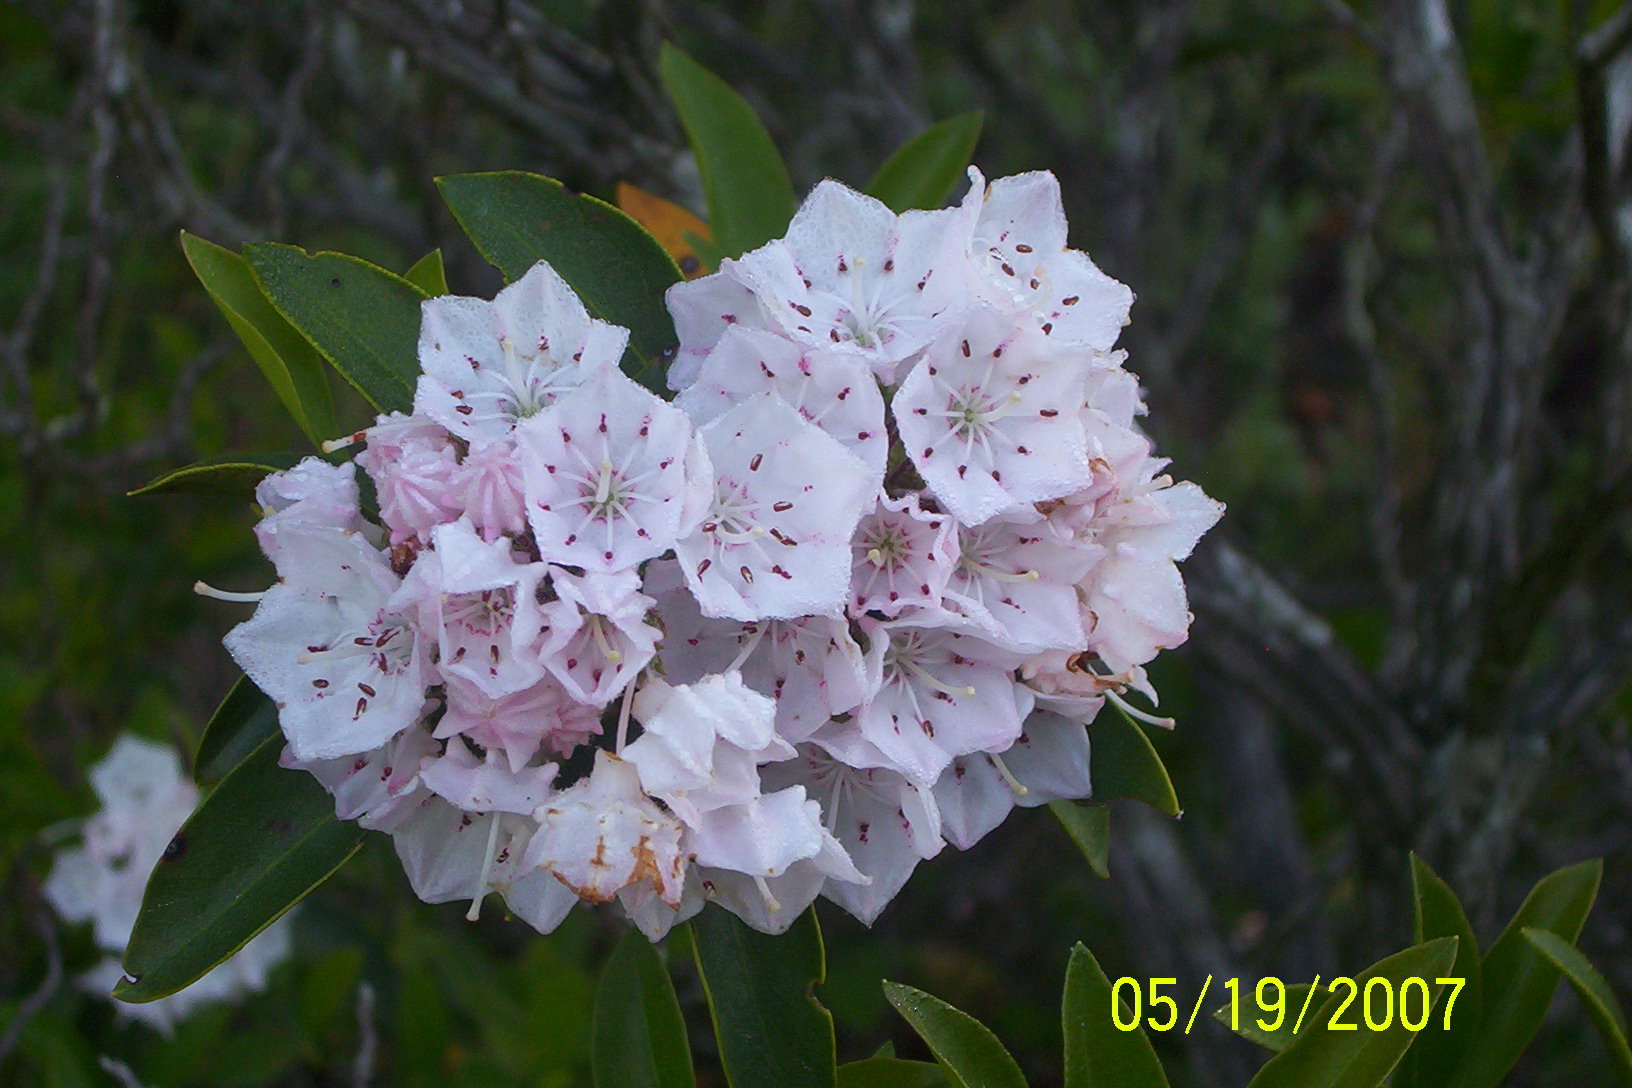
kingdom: Plantae
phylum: Tracheophyta
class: Magnoliopsida
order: Ericales
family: Ericaceae
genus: Kalmia
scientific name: Kalmia latifolia
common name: Mountain-laurel
